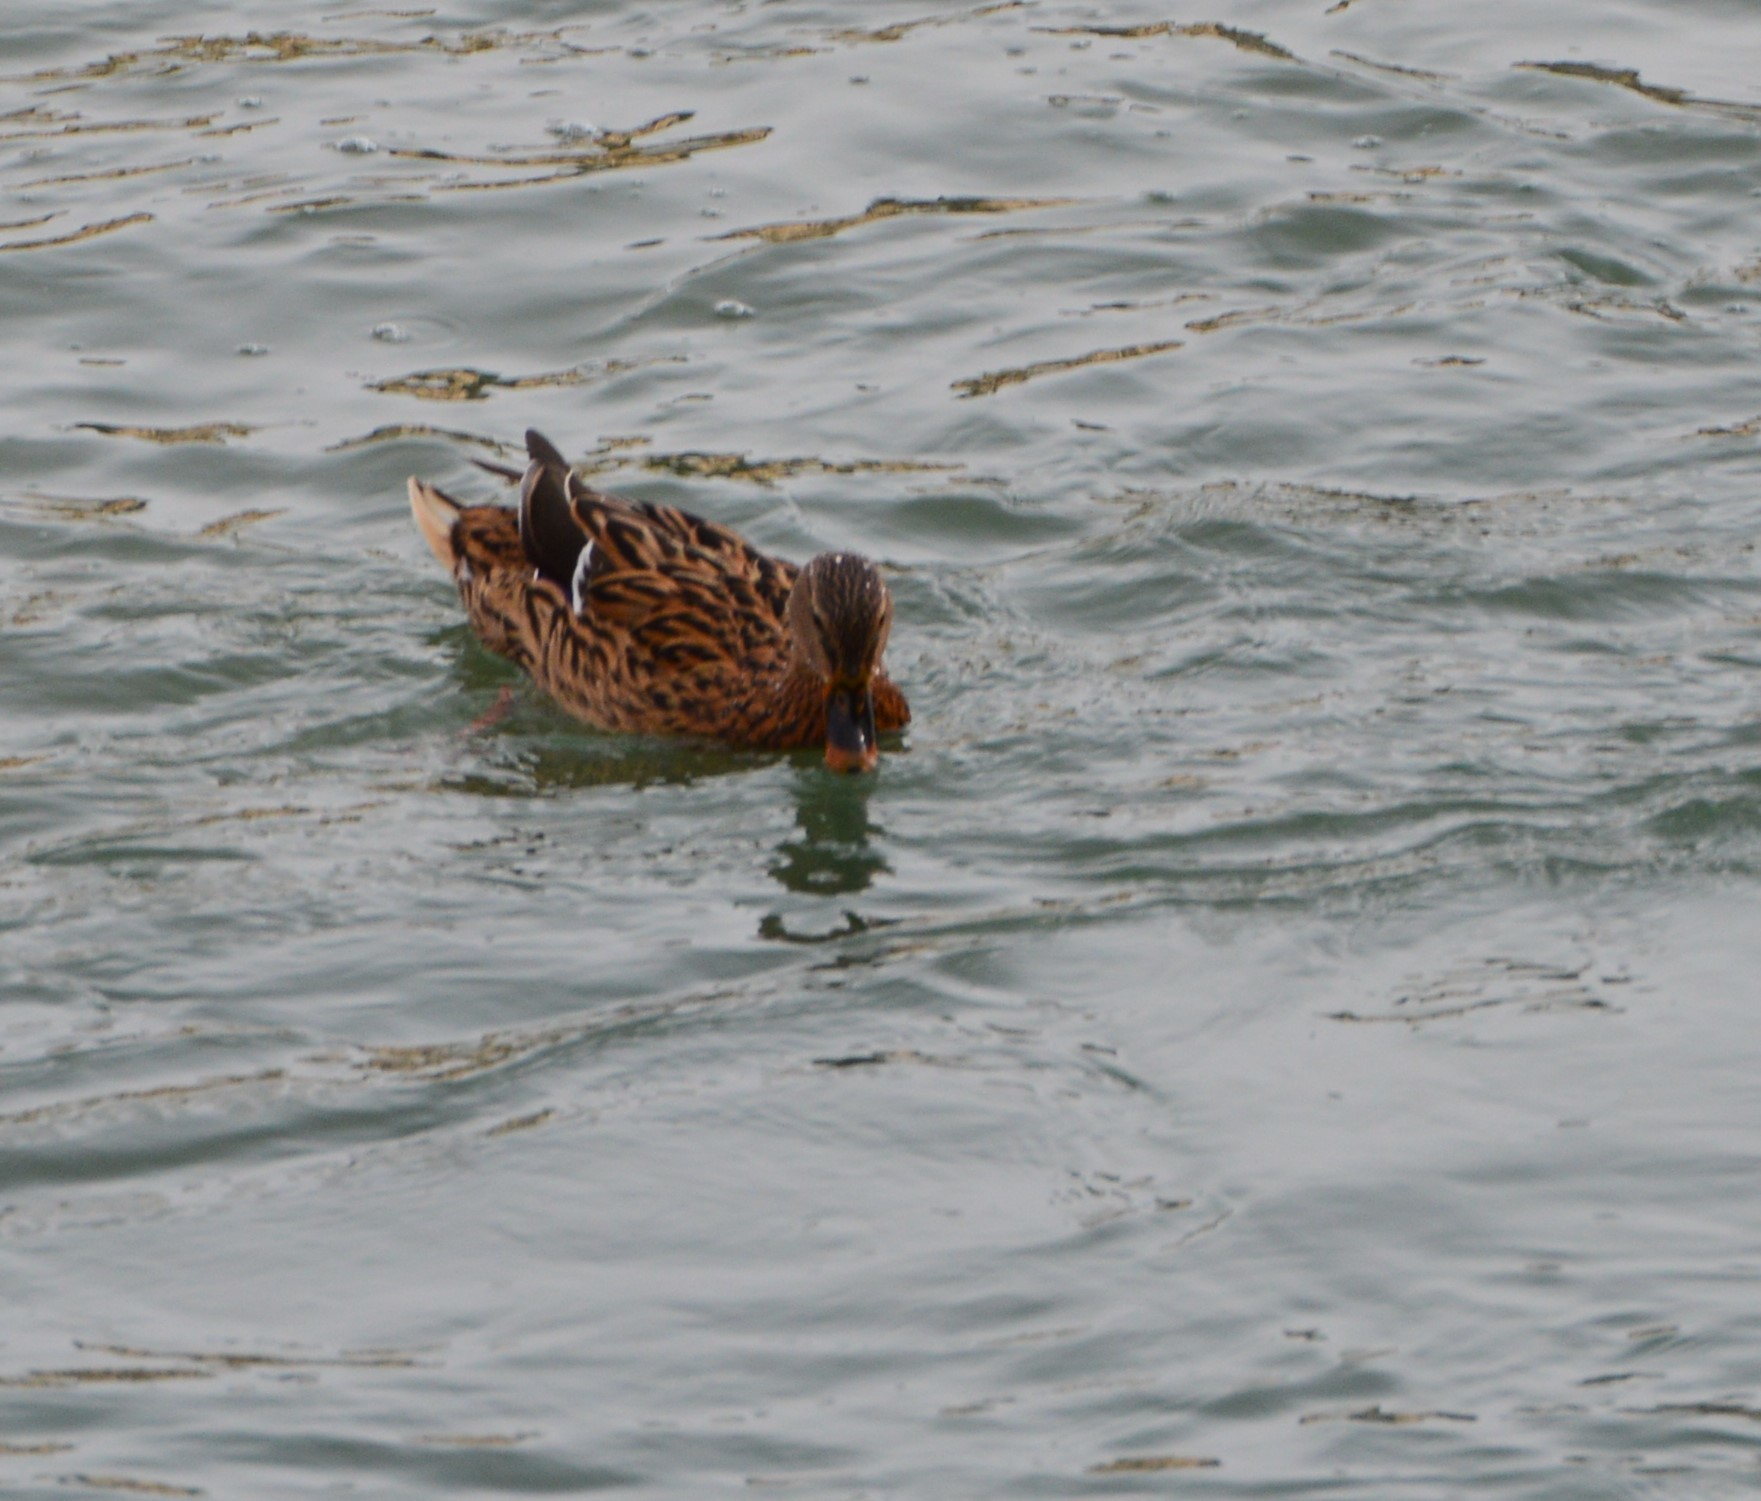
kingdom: Animalia
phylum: Chordata
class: Aves
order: Anseriformes
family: Anatidae
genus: Anas
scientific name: Anas platyrhynchos
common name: Mallard
